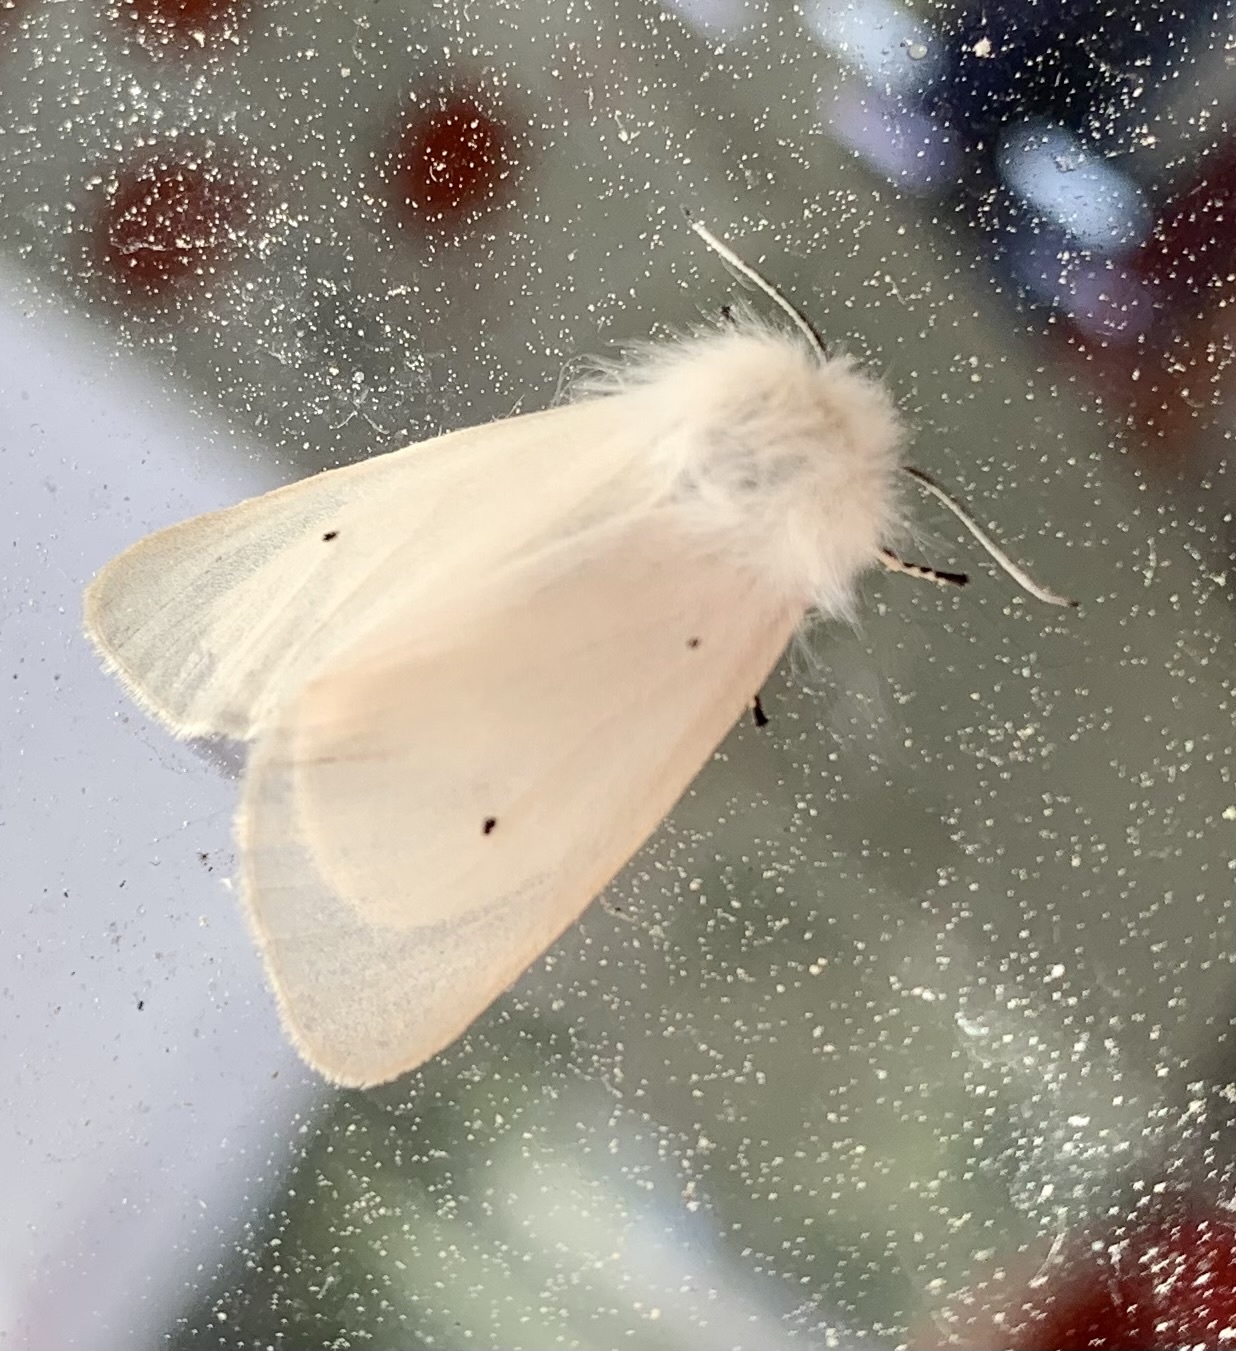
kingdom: Animalia
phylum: Arthropoda
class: Insecta
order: Lepidoptera
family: Erebidae
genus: Diaphora
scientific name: Diaphora mendica
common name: Muslin moth
